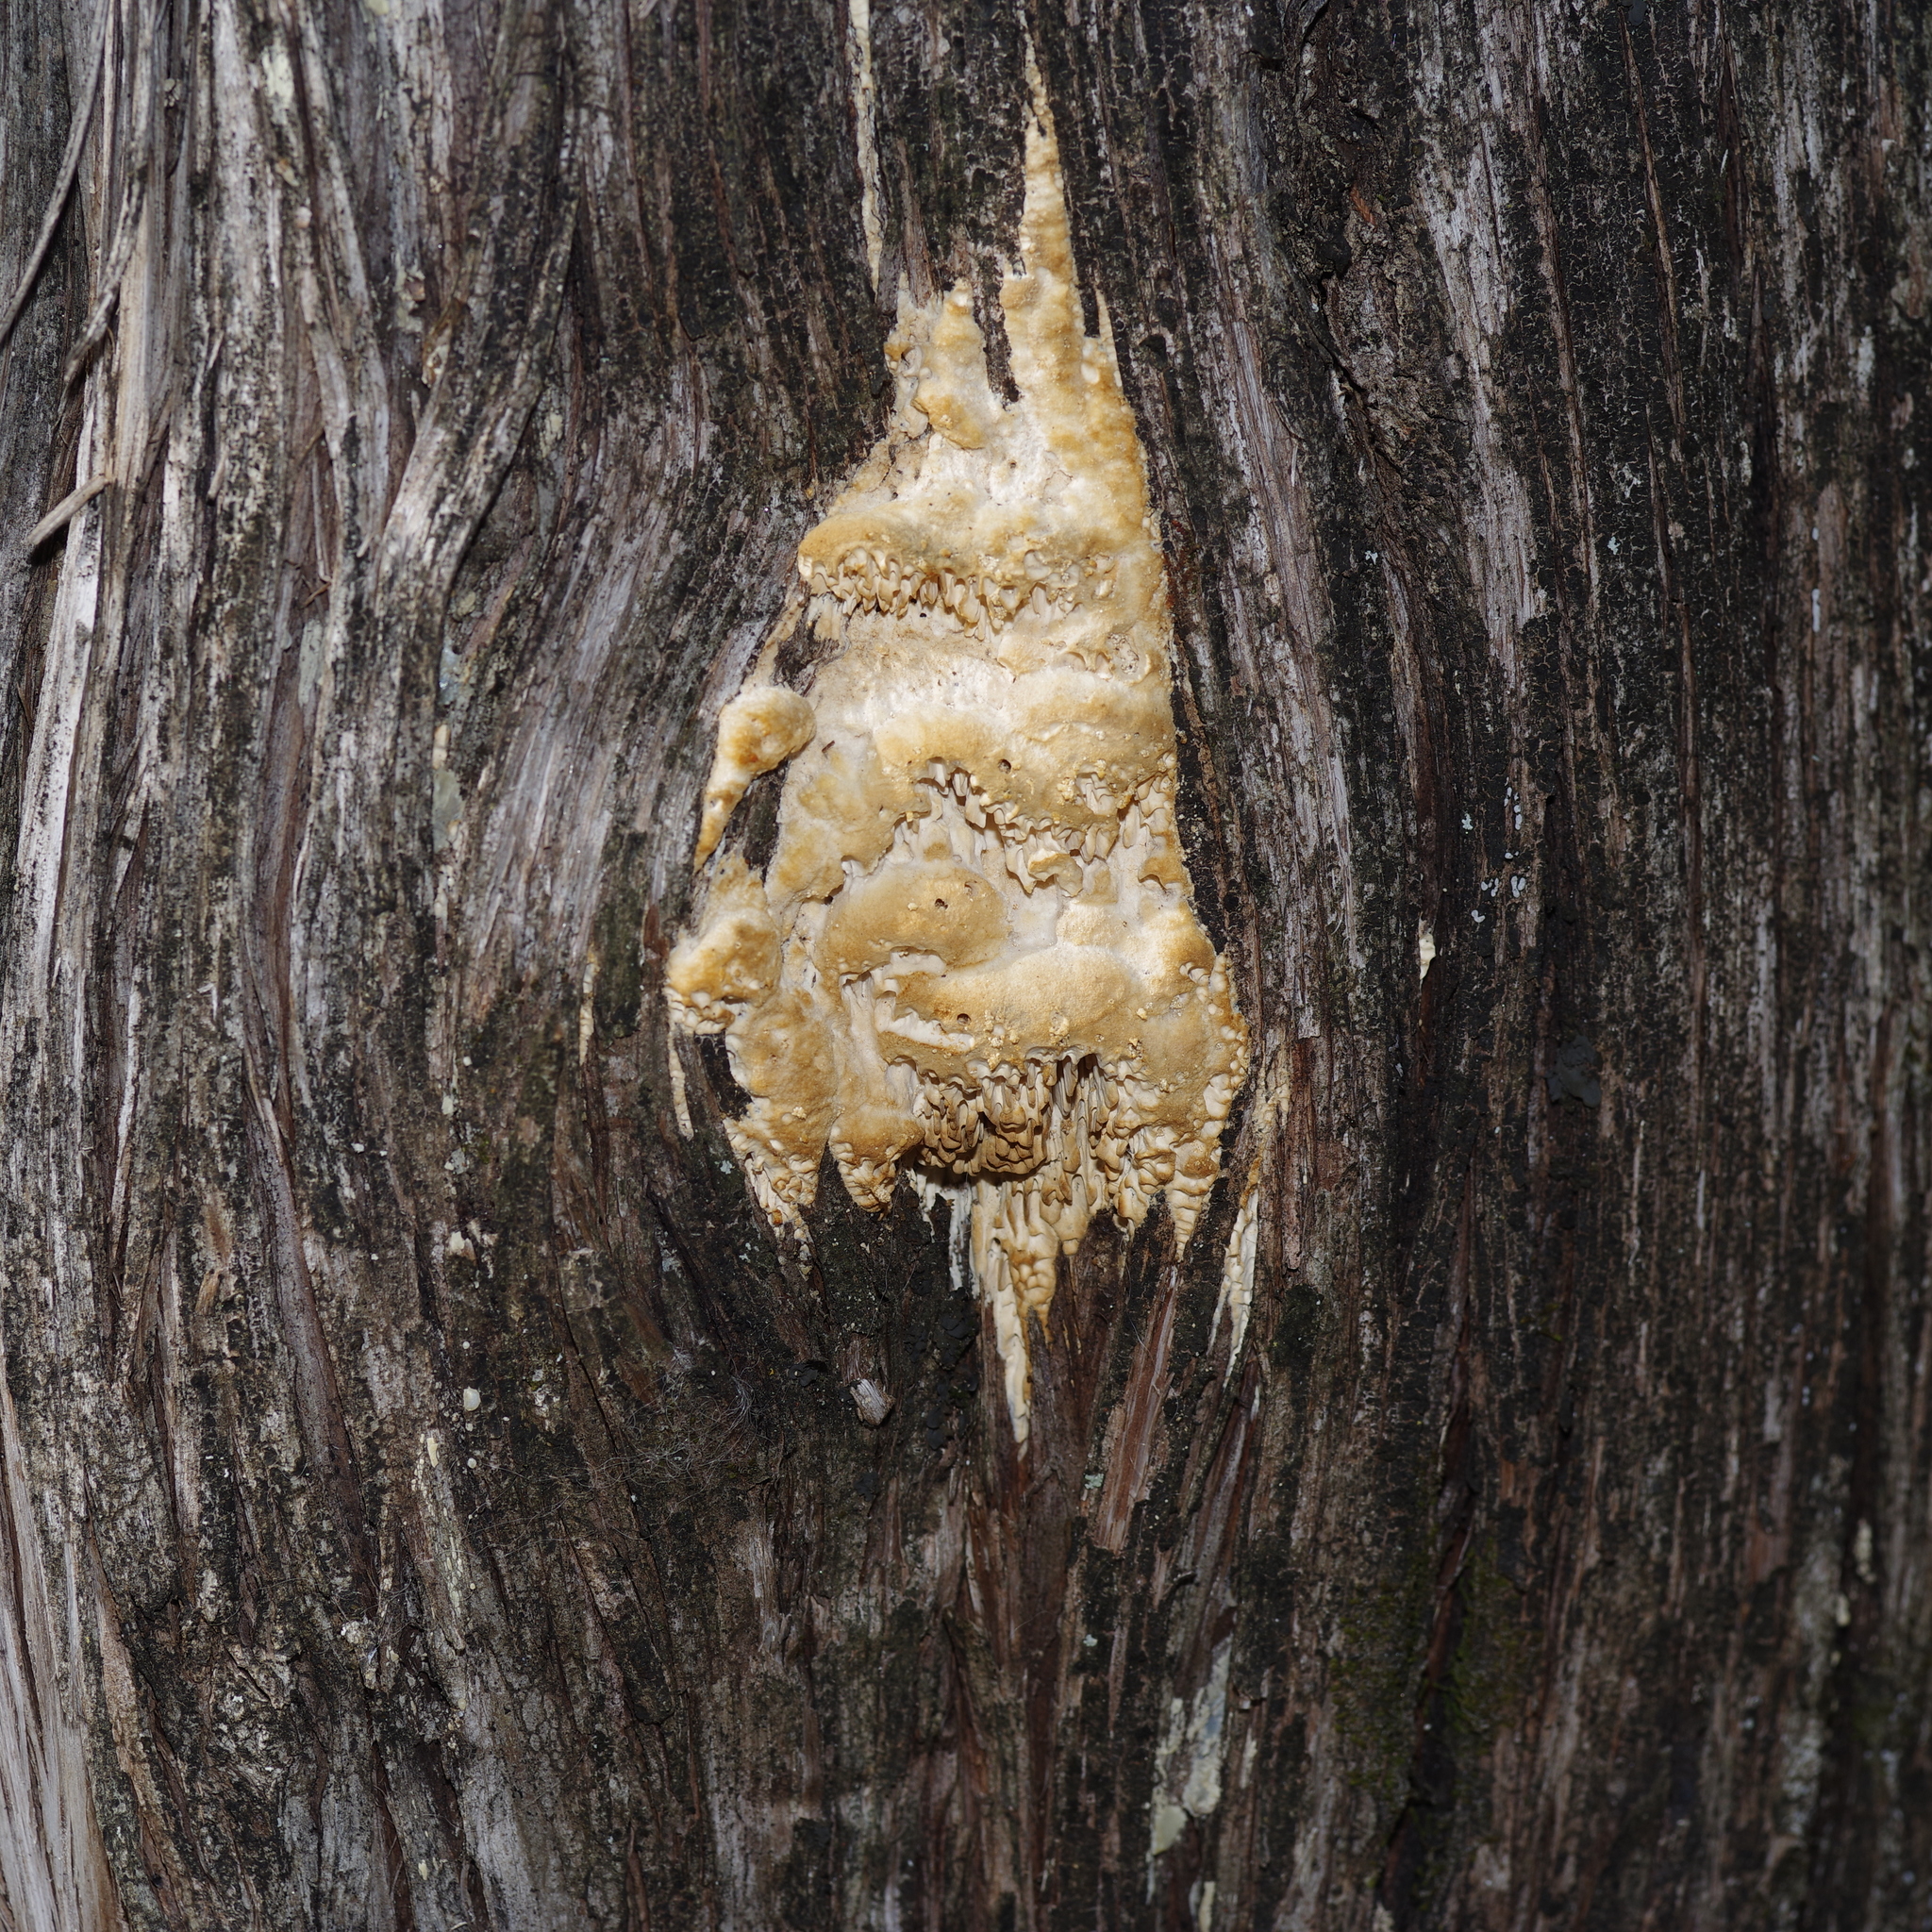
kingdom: Fungi
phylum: Basidiomycota
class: Agaricomycetes
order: Polyporales
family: Fomitopsidaceae
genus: Fomitopsis
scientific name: Fomitopsis
